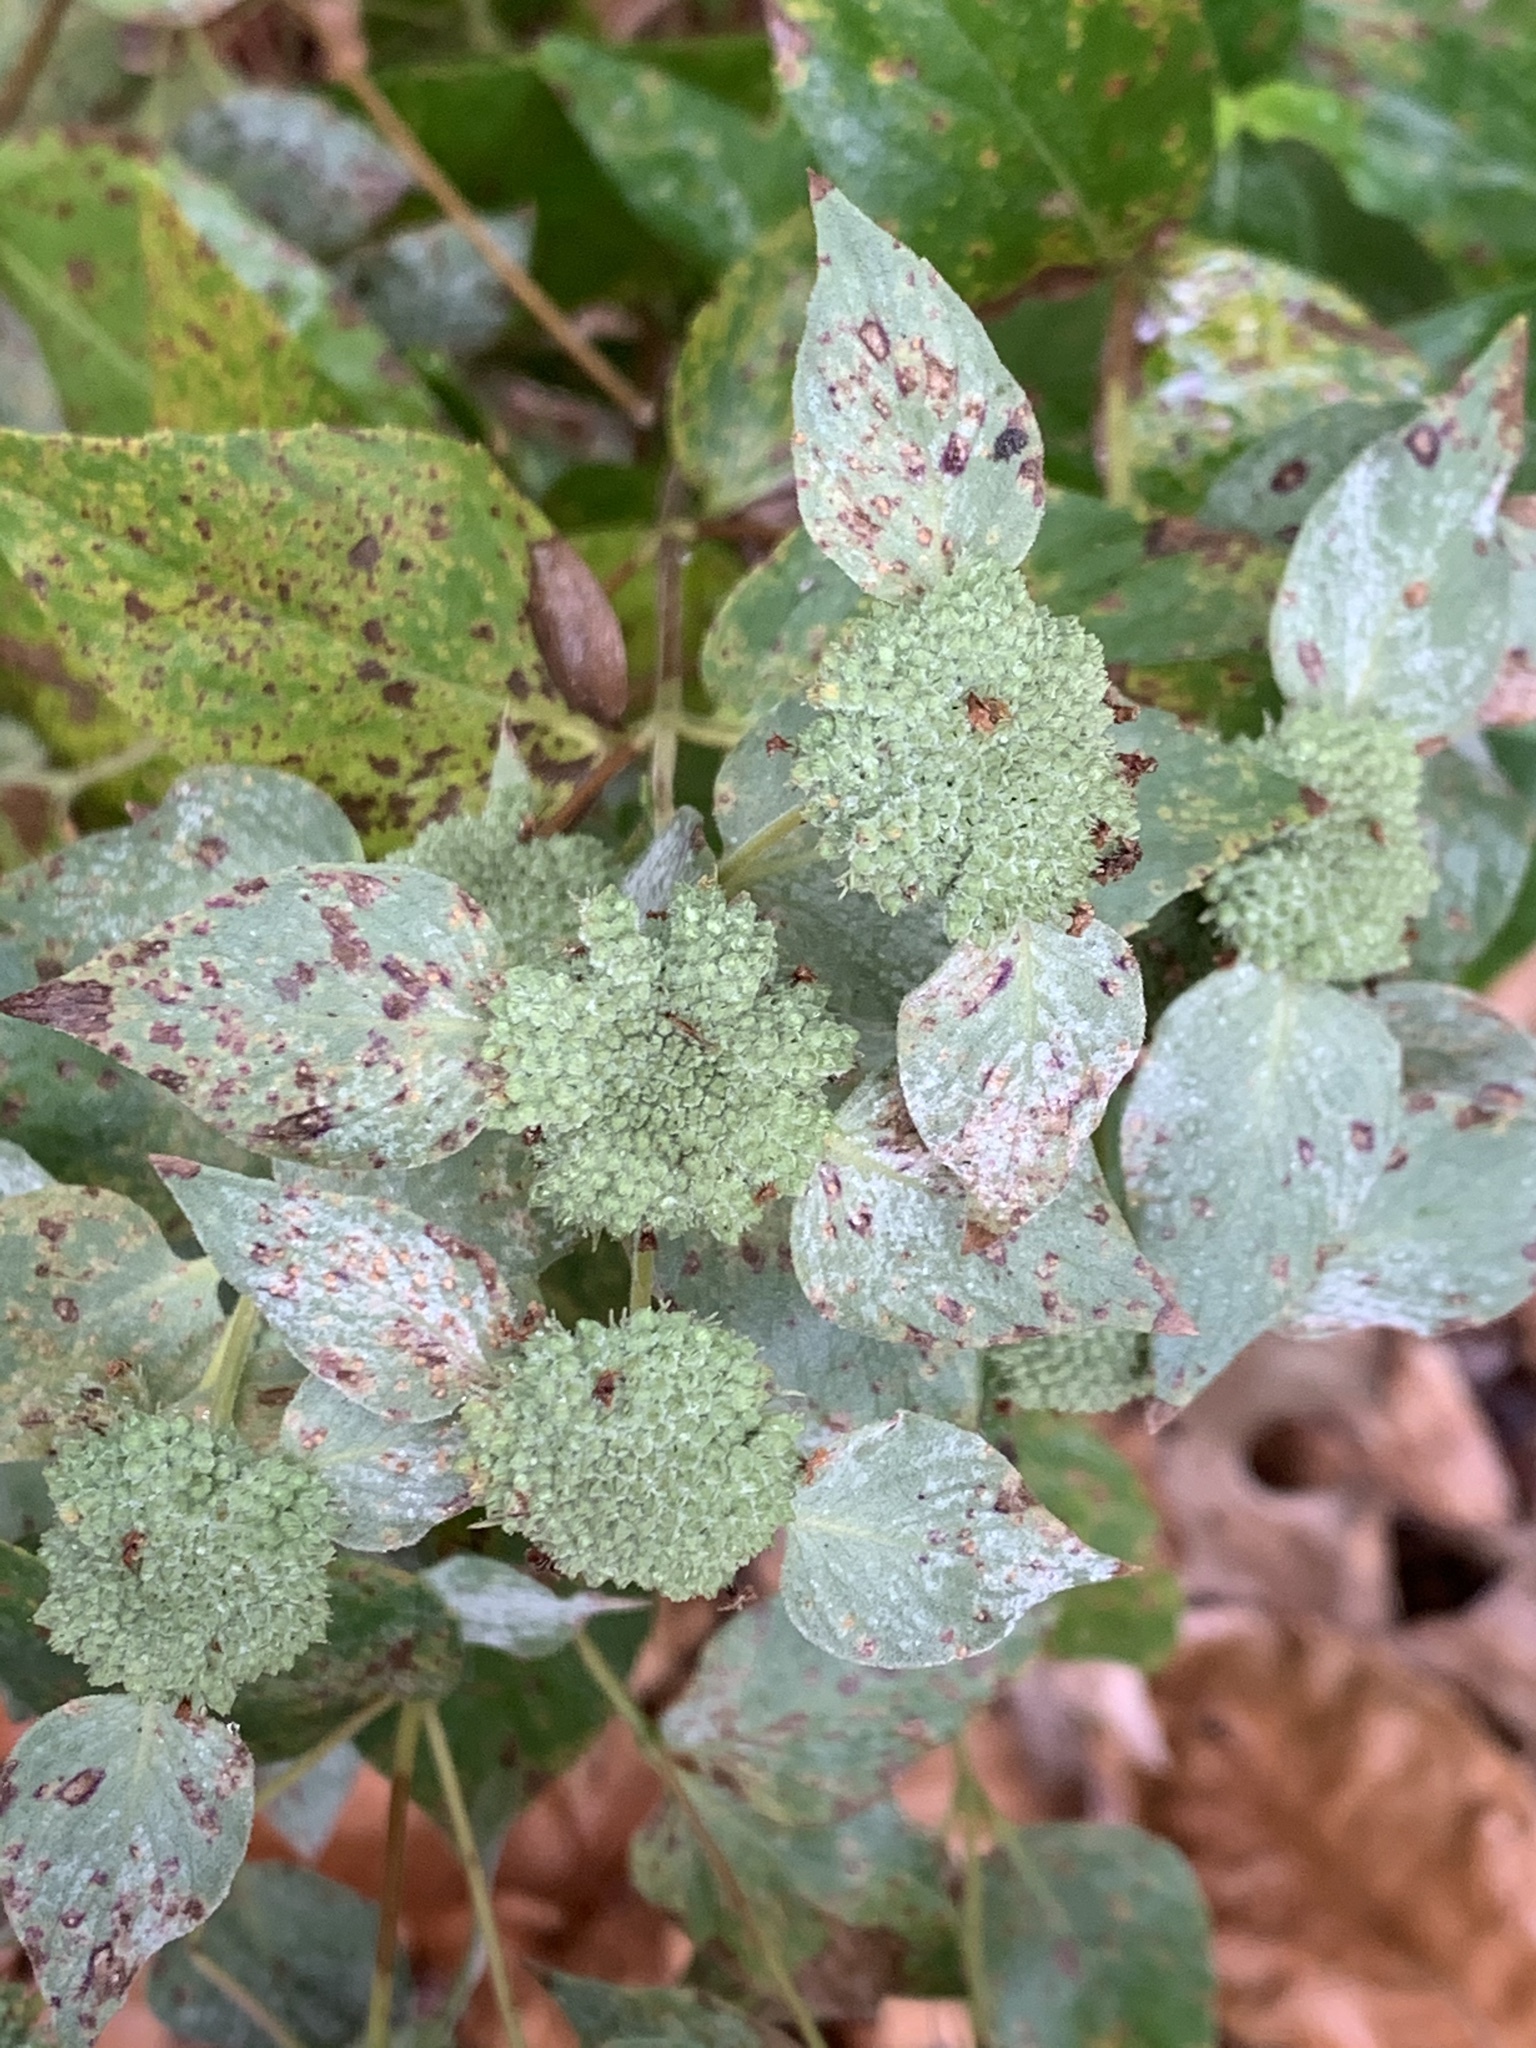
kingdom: Plantae
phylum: Tracheophyta
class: Magnoliopsida
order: Lamiales
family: Lamiaceae
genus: Pycnanthemum
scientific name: Pycnanthemum muticum
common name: Blunt mountain-mint
